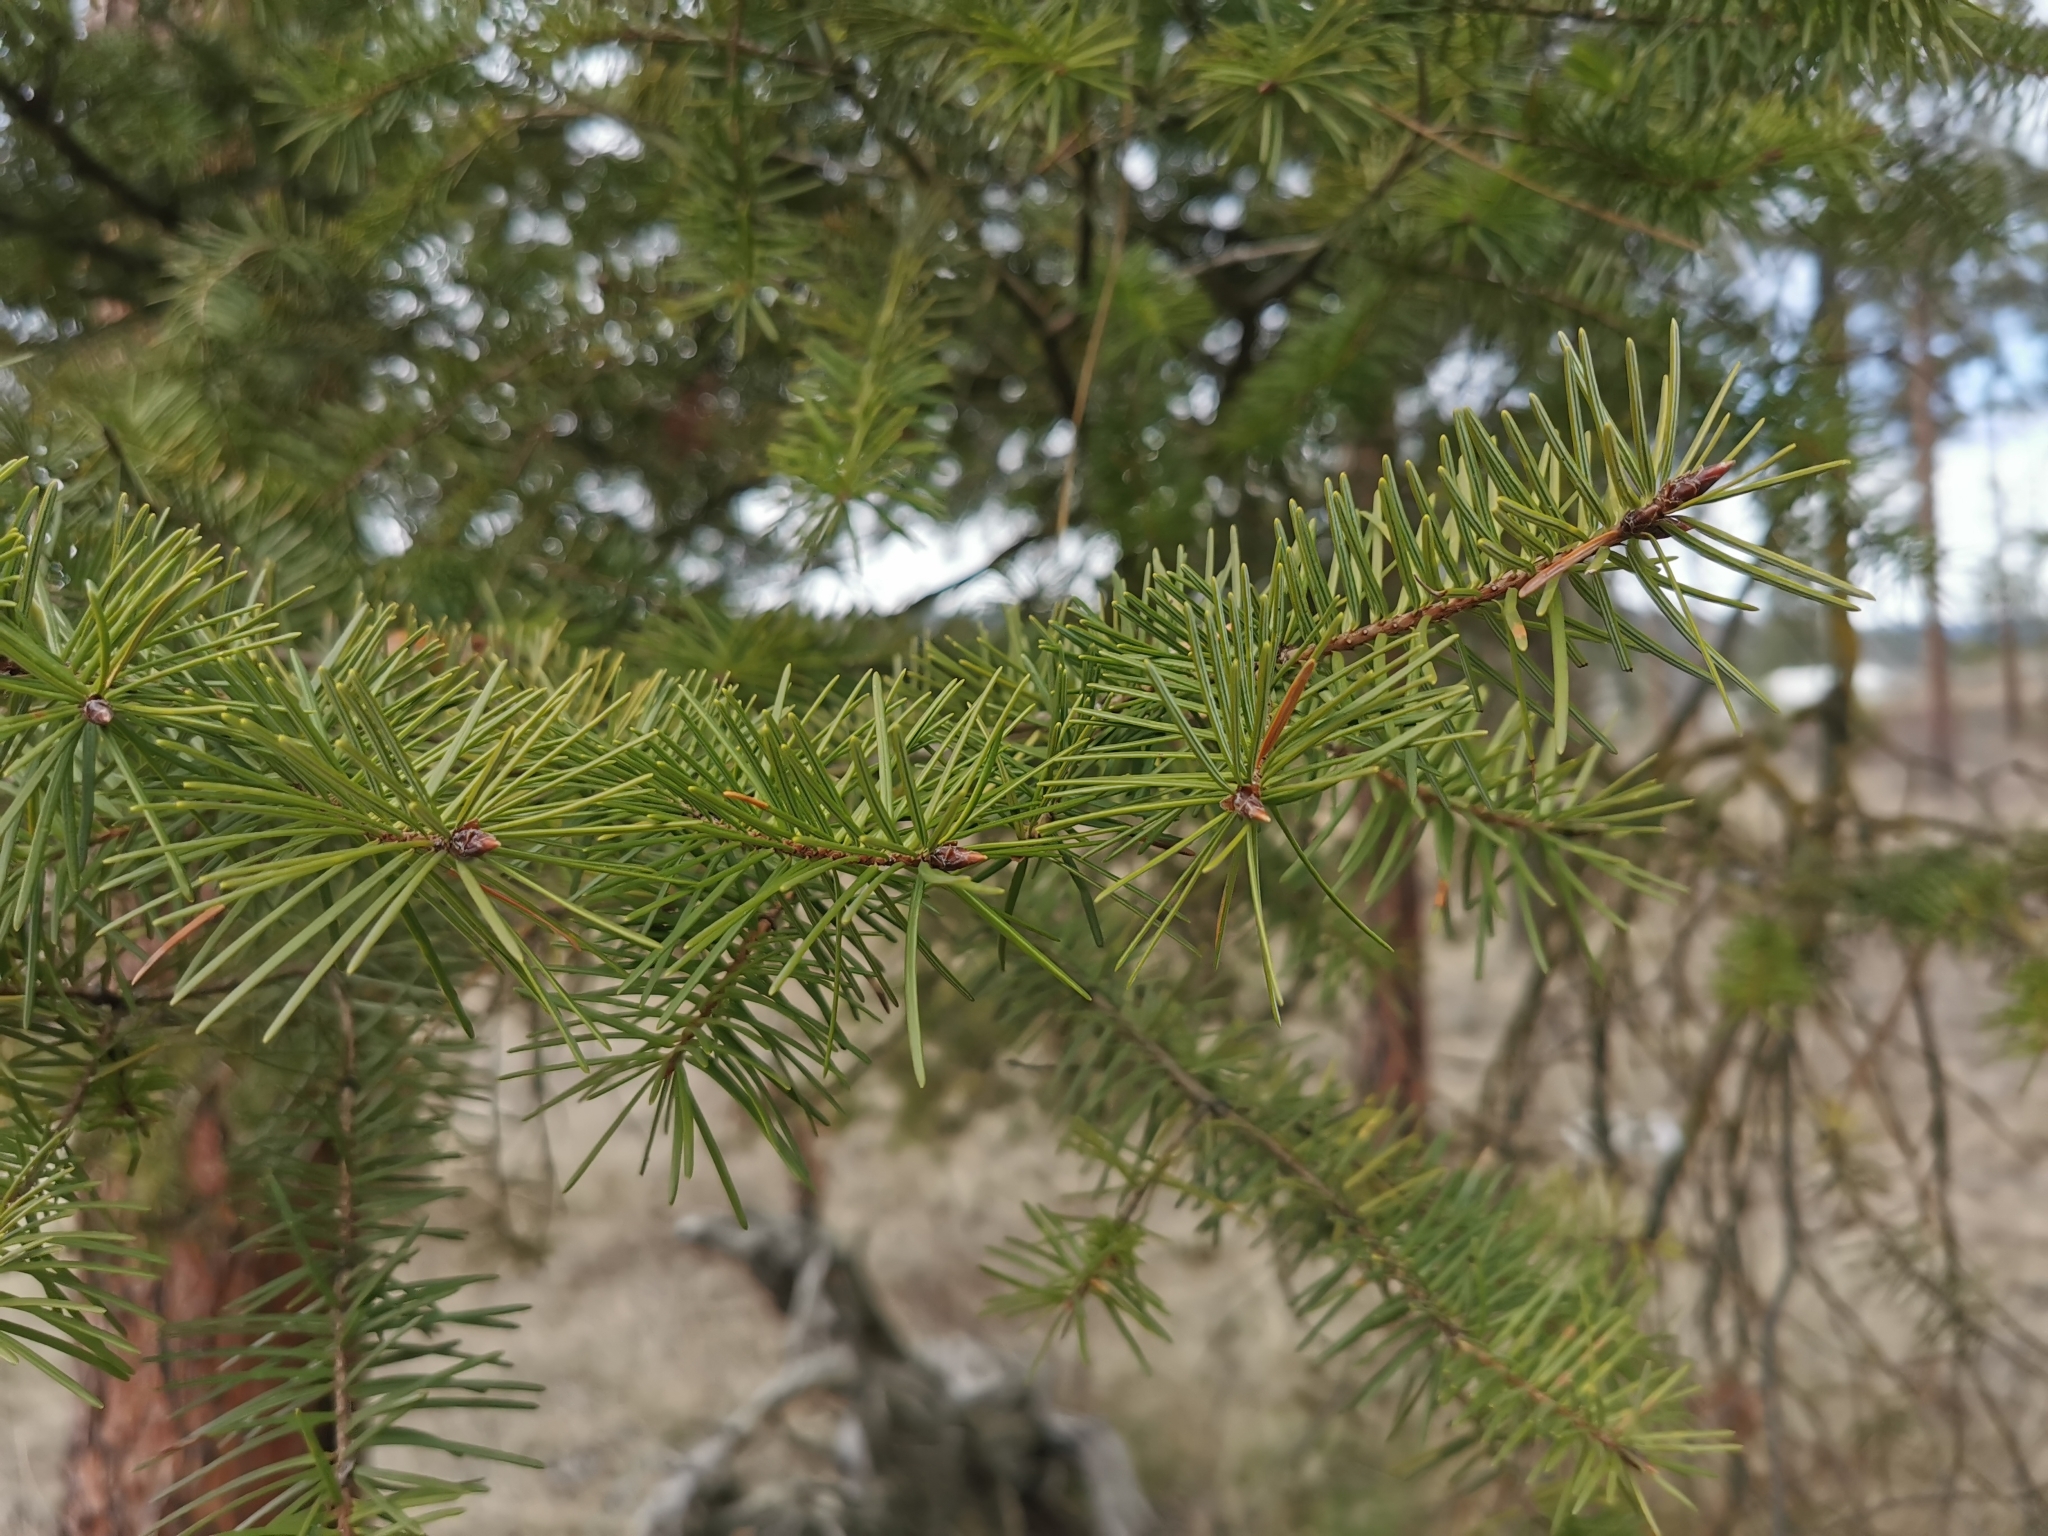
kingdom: Plantae
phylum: Tracheophyta
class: Pinopsida
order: Pinales
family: Pinaceae
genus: Pseudotsuga
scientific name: Pseudotsuga menziesii
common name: Douglas fir
